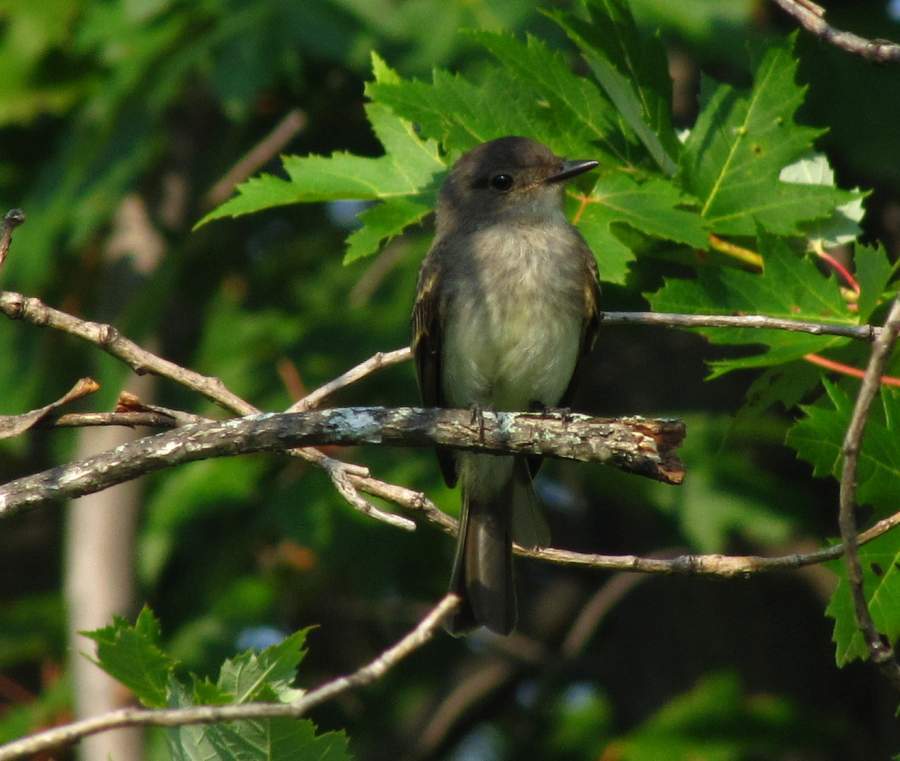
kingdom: Animalia
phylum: Chordata
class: Aves
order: Passeriformes
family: Tyrannidae
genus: Sayornis
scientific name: Sayornis phoebe
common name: Eastern phoebe
